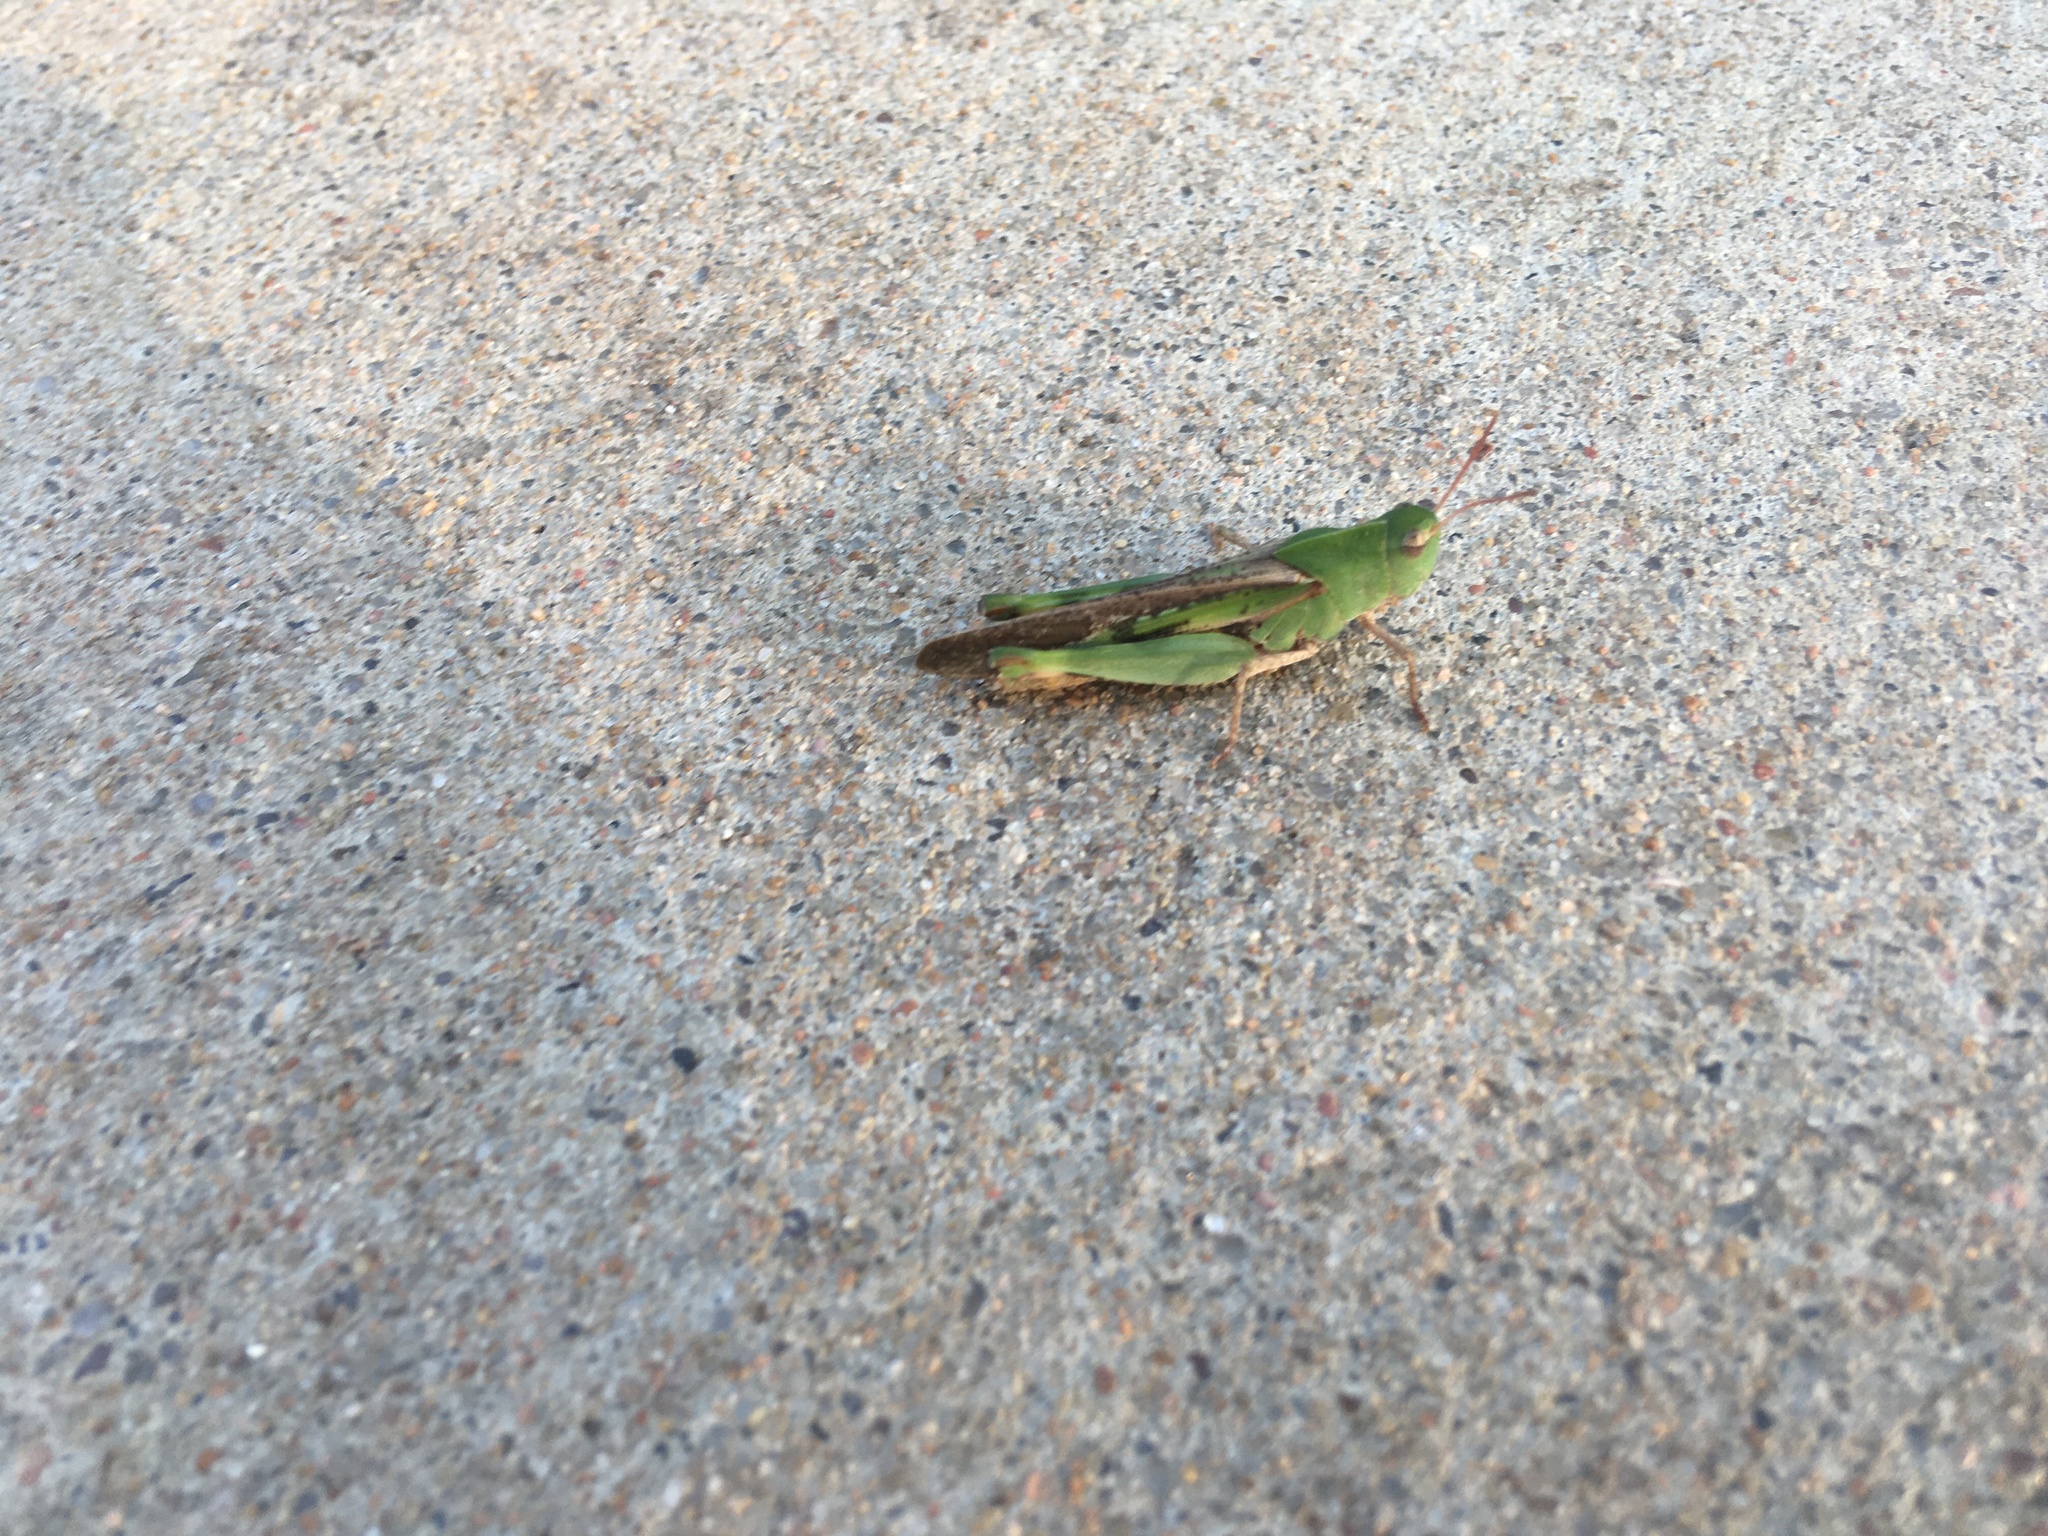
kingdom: Animalia
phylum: Arthropoda
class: Insecta
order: Orthoptera
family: Acrididae
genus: Chortophaga
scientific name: Chortophaga viridifasciata
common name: Green-striped grasshopper
